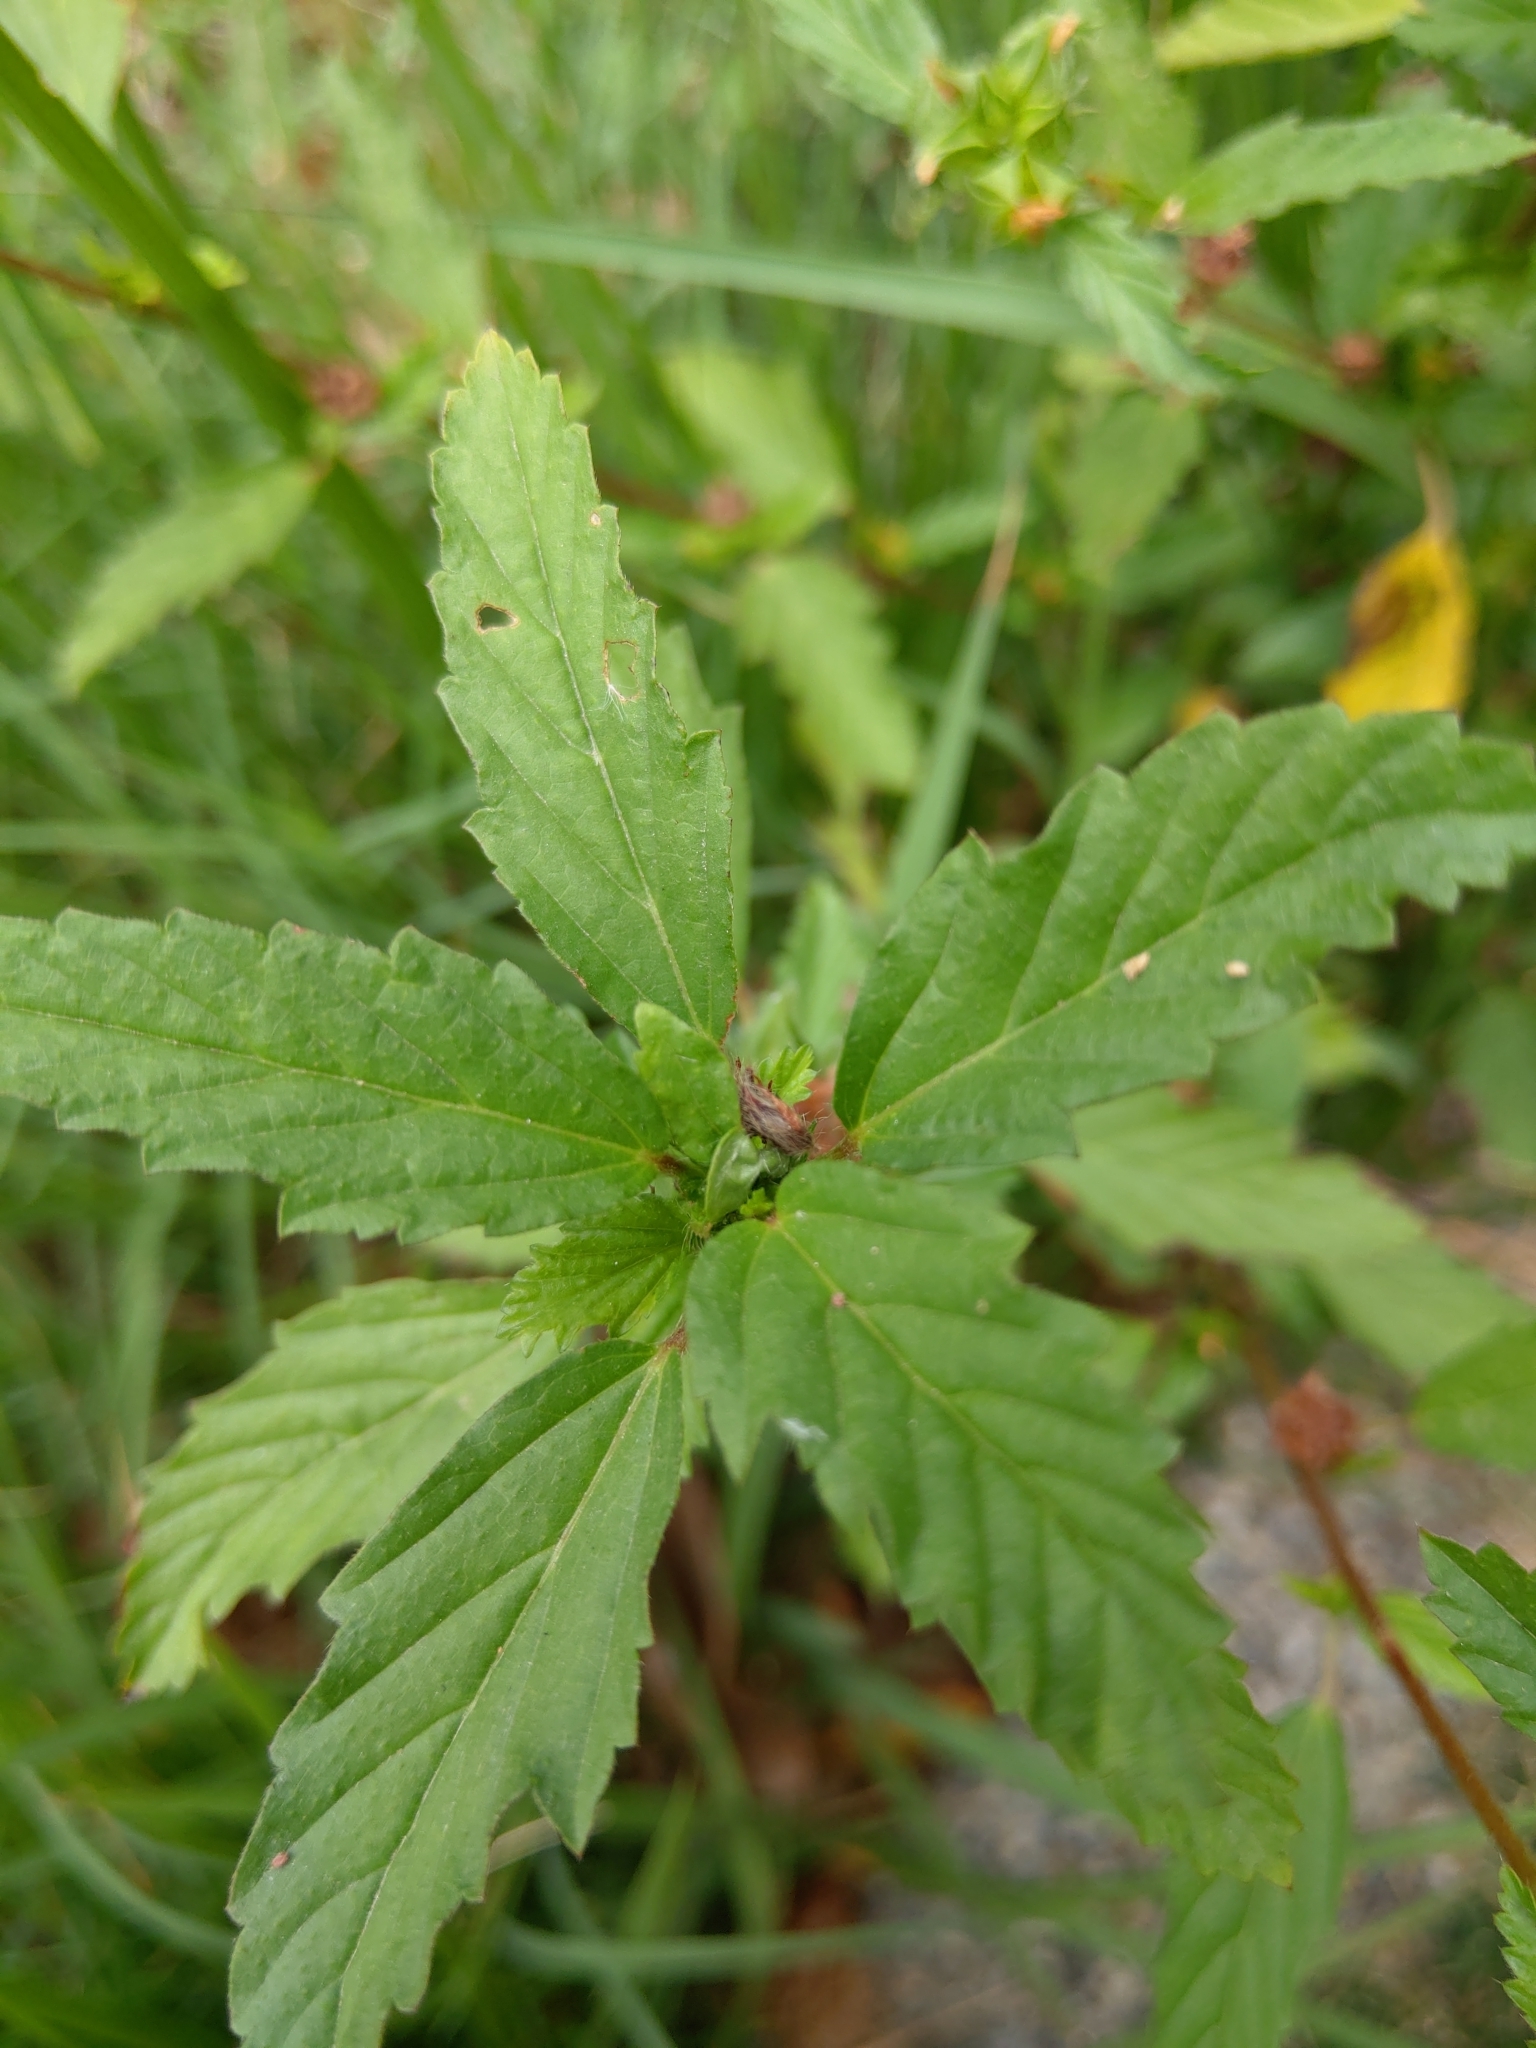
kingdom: Plantae
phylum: Tracheophyta
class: Magnoliopsida
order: Malvales
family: Malvaceae
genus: Malvastrum
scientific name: Malvastrum coromandelianum
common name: Threelobe false mallow
